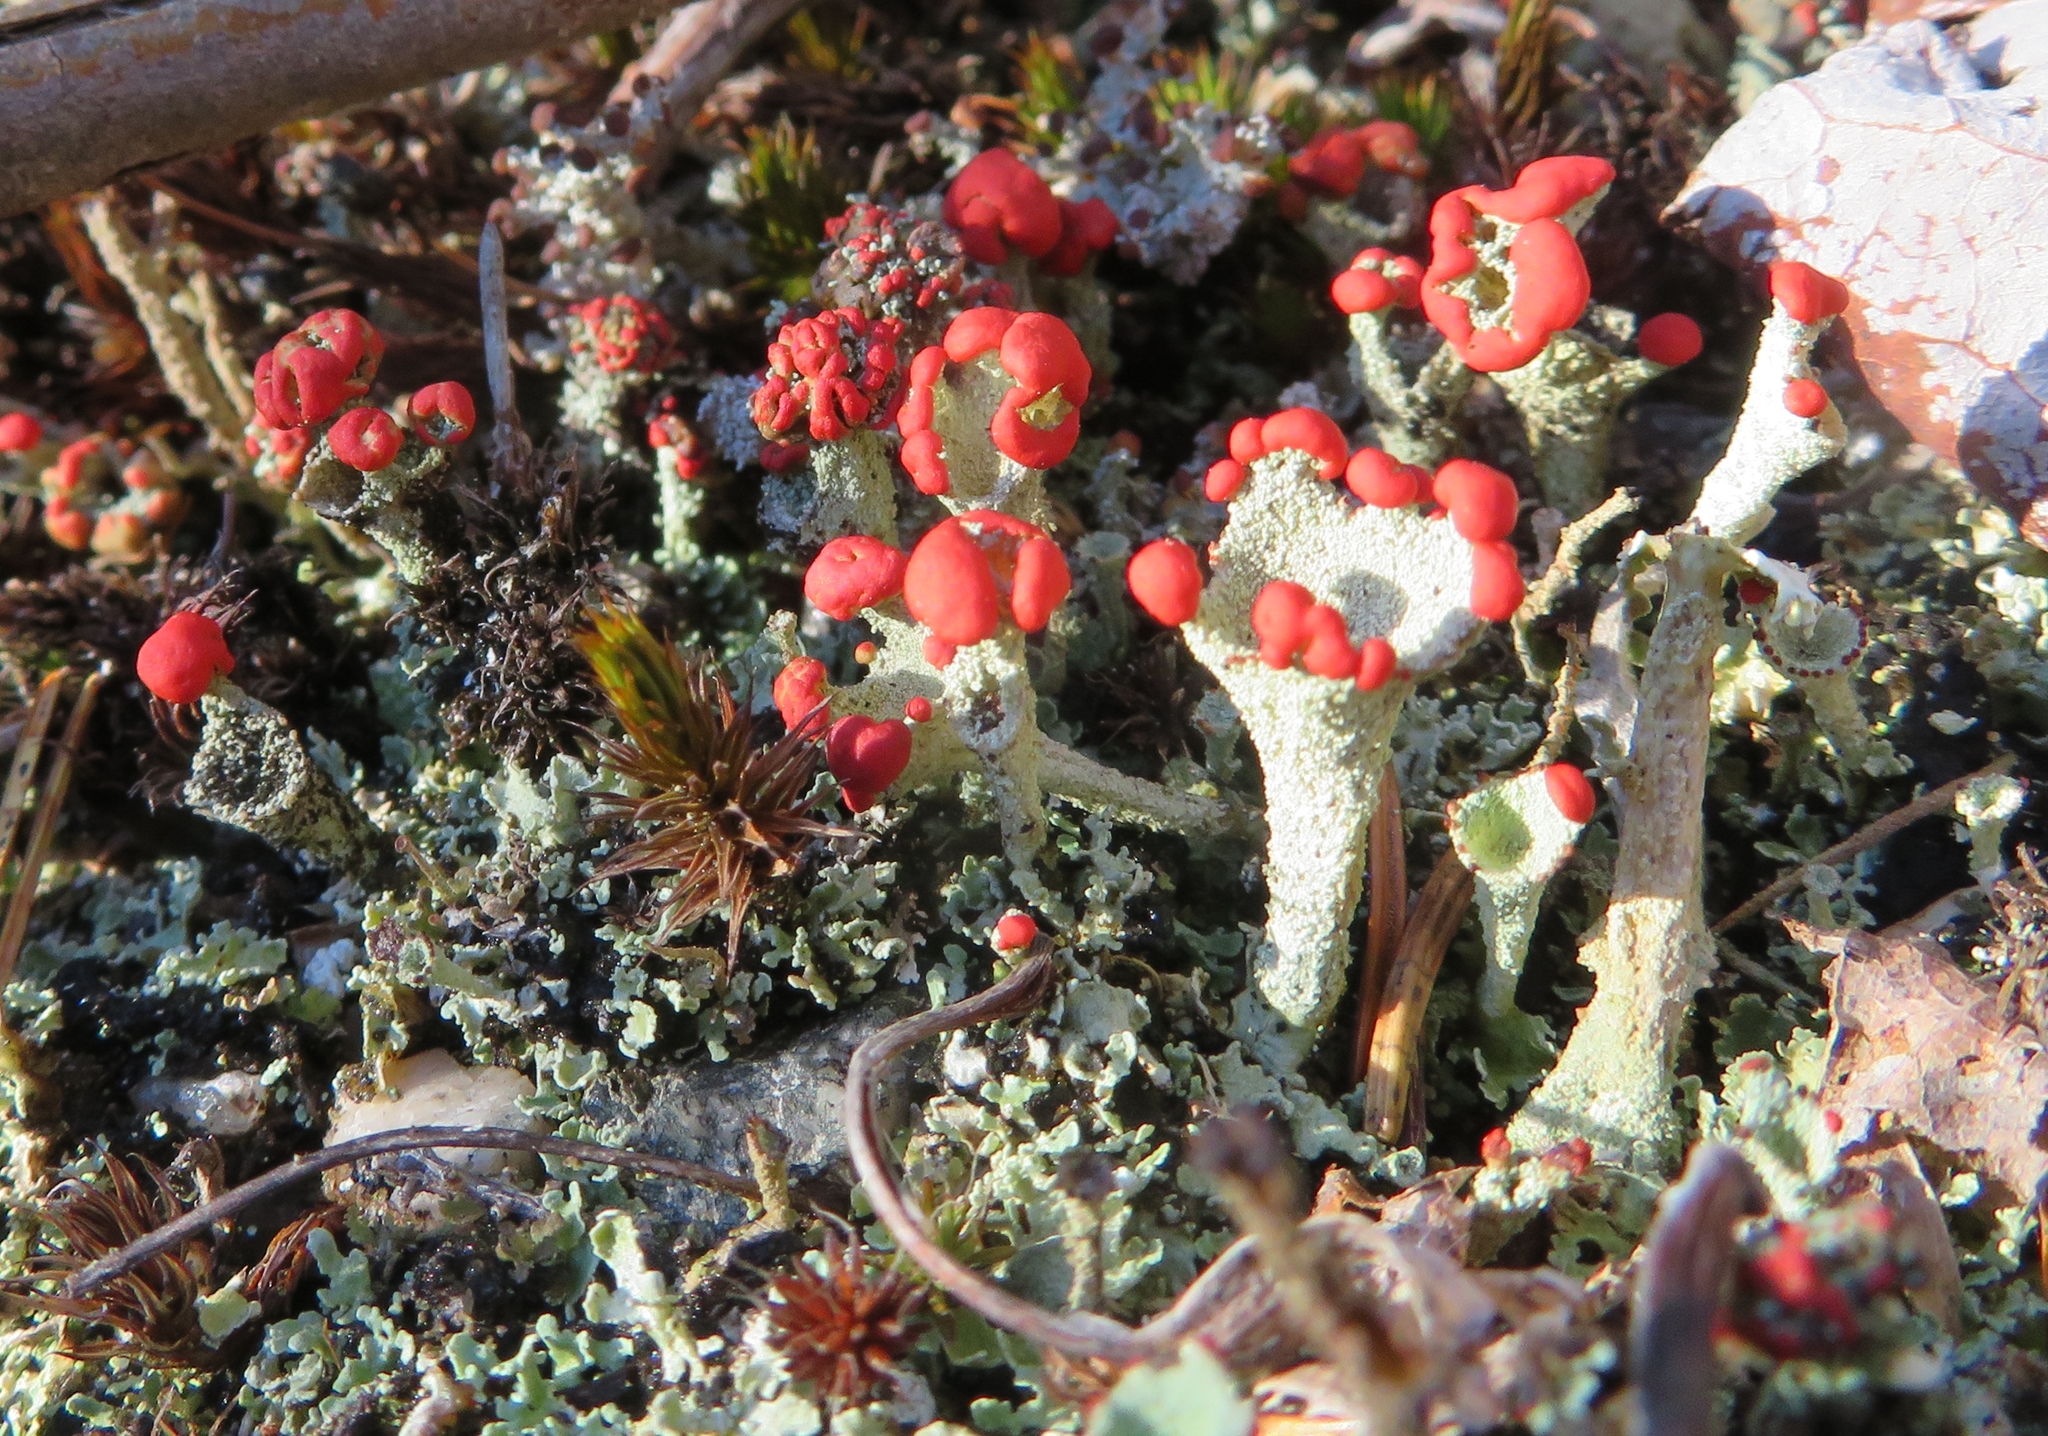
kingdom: Fungi
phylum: Ascomycota
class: Lecanoromycetes
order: Lecanorales
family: Cladoniaceae
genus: Cladonia
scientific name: Cladonia cristatella
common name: British soldier lichen
